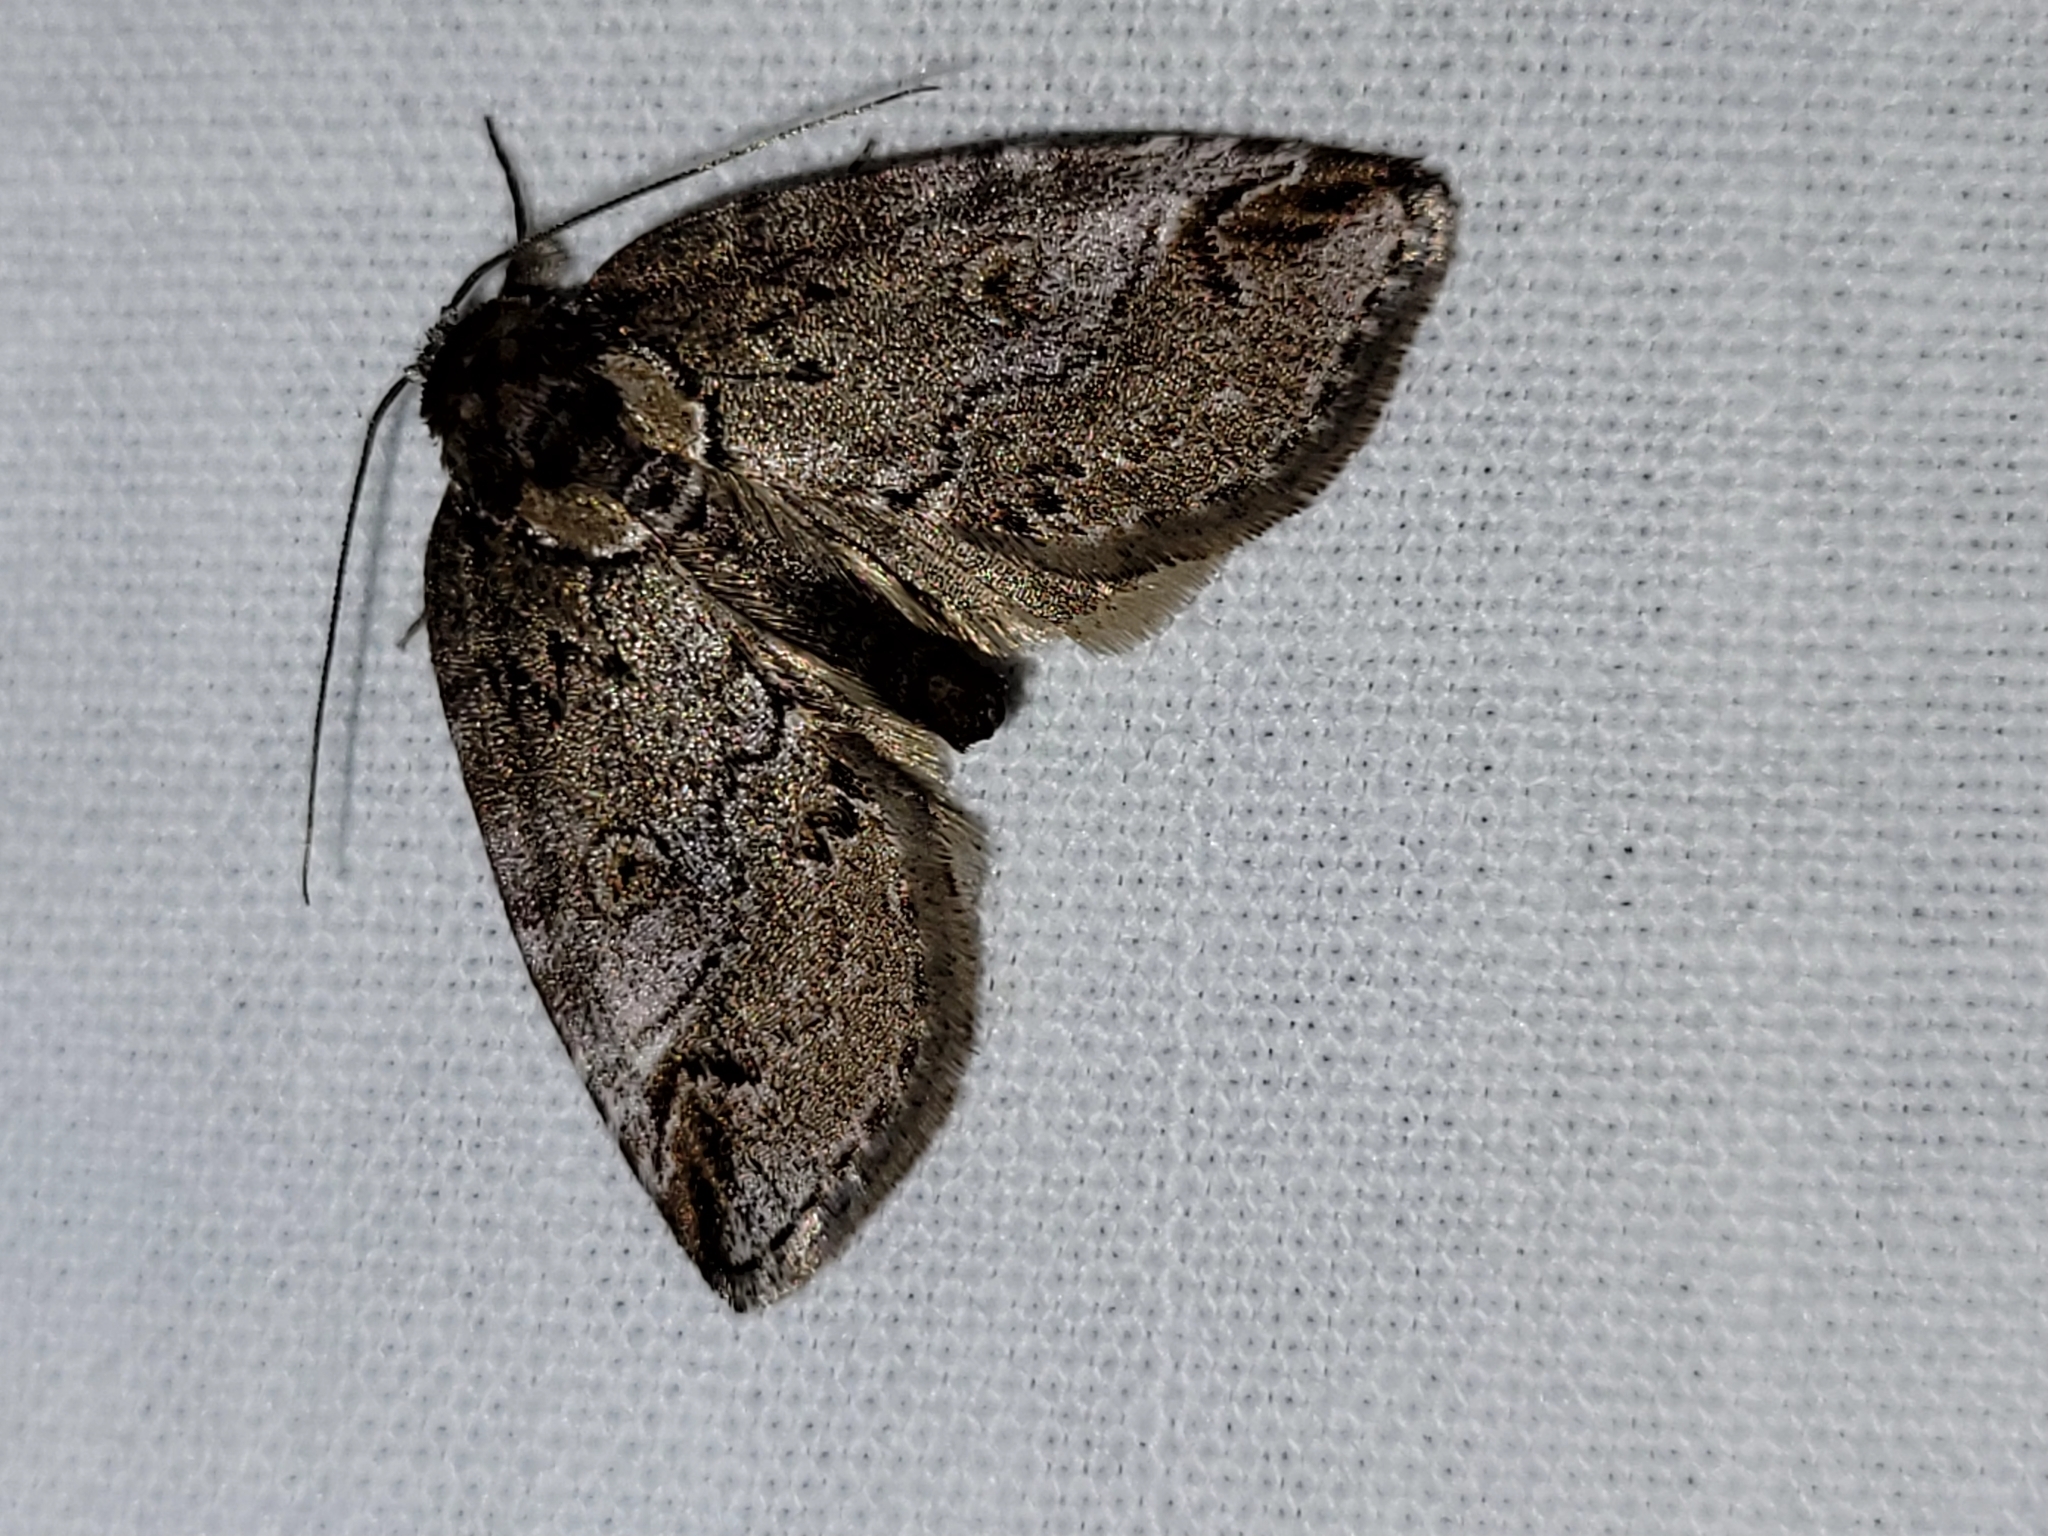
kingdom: Animalia
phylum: Arthropoda
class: Insecta
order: Lepidoptera
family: Nolidae
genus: Baileya
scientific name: Baileya ophthalmica
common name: Eyed baileya moth
